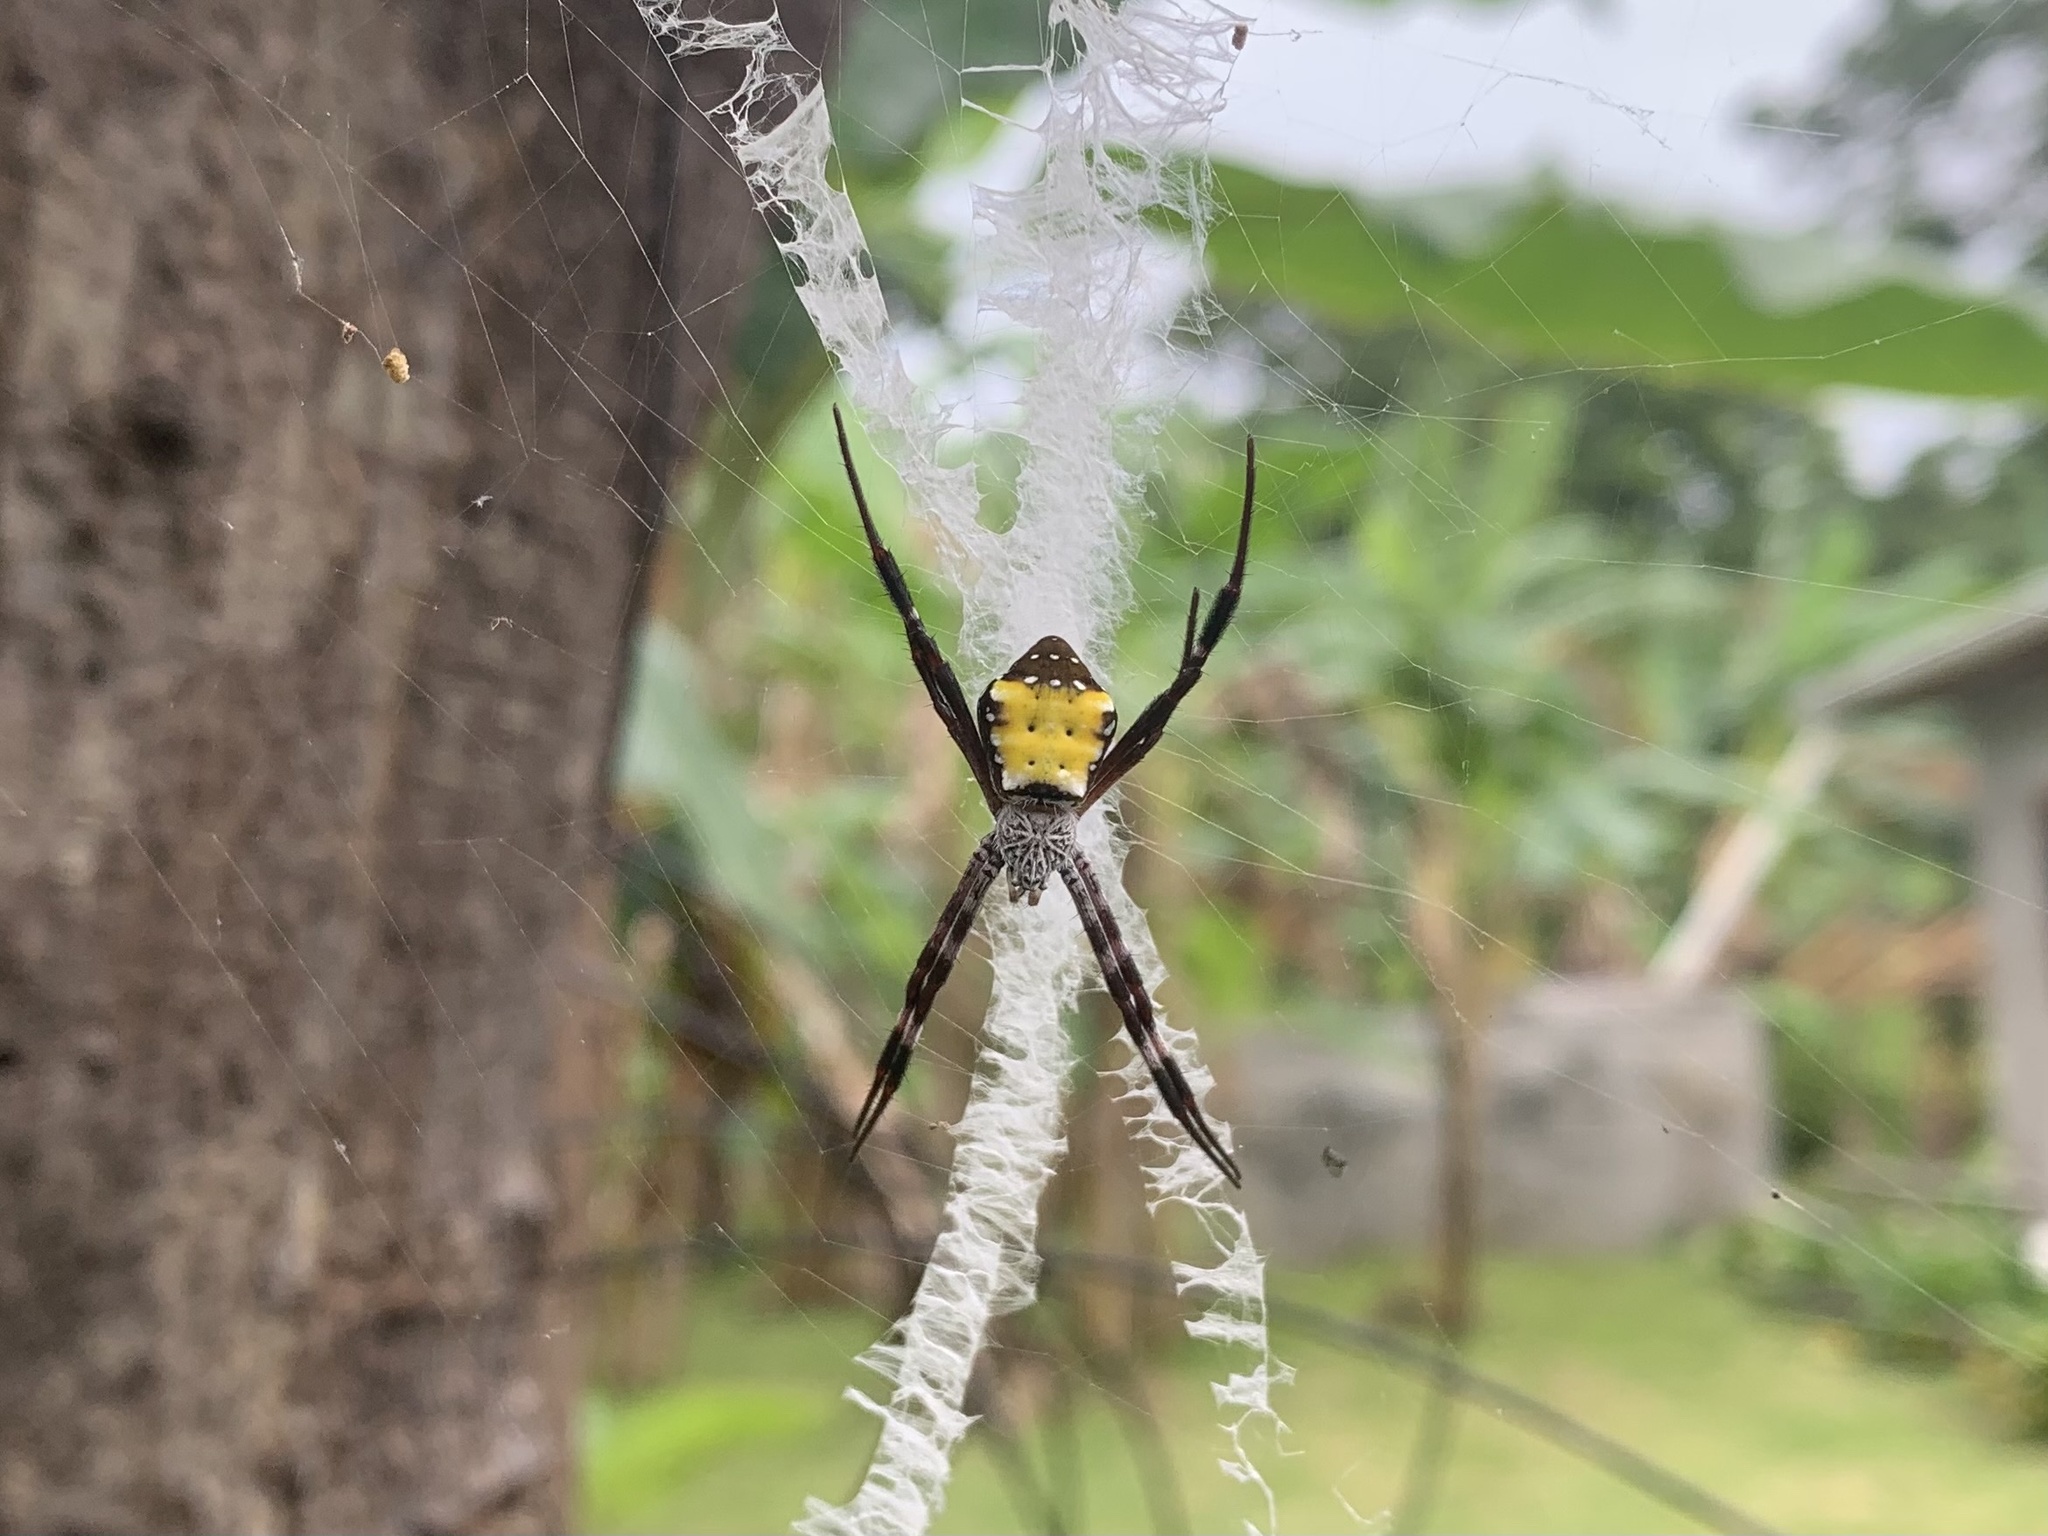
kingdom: Animalia
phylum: Arthropoda
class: Arachnida
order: Araneae
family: Araneidae
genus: Argiope
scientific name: Argiope aetherea
